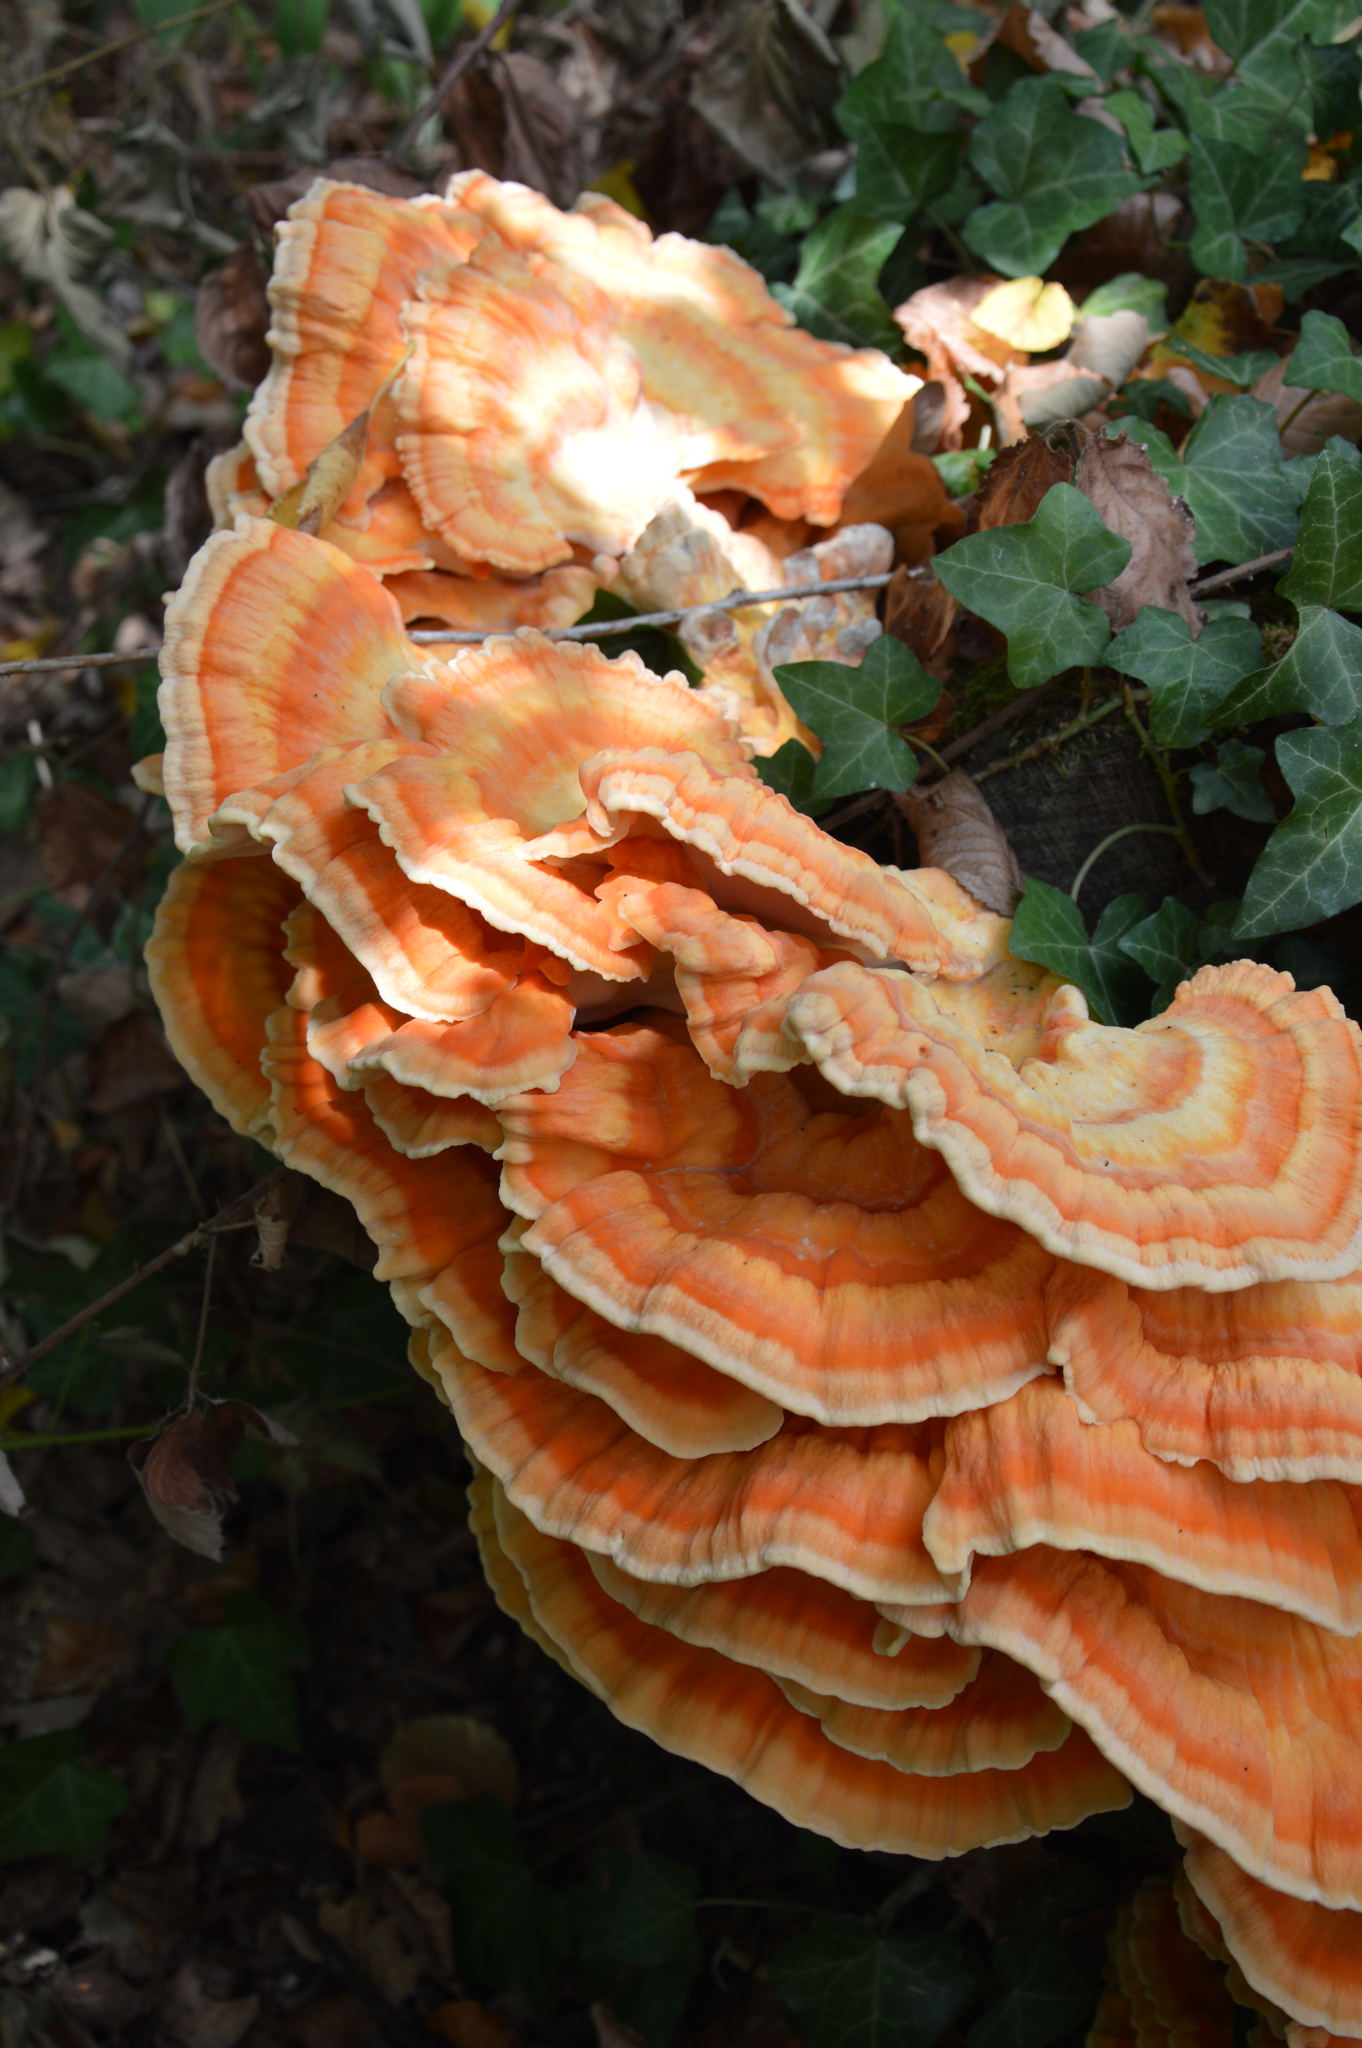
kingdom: Fungi
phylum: Basidiomycota
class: Agaricomycetes
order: Polyporales
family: Laetiporaceae
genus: Laetiporus
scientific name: Laetiporus sulphureus
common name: Chicken of the woods
